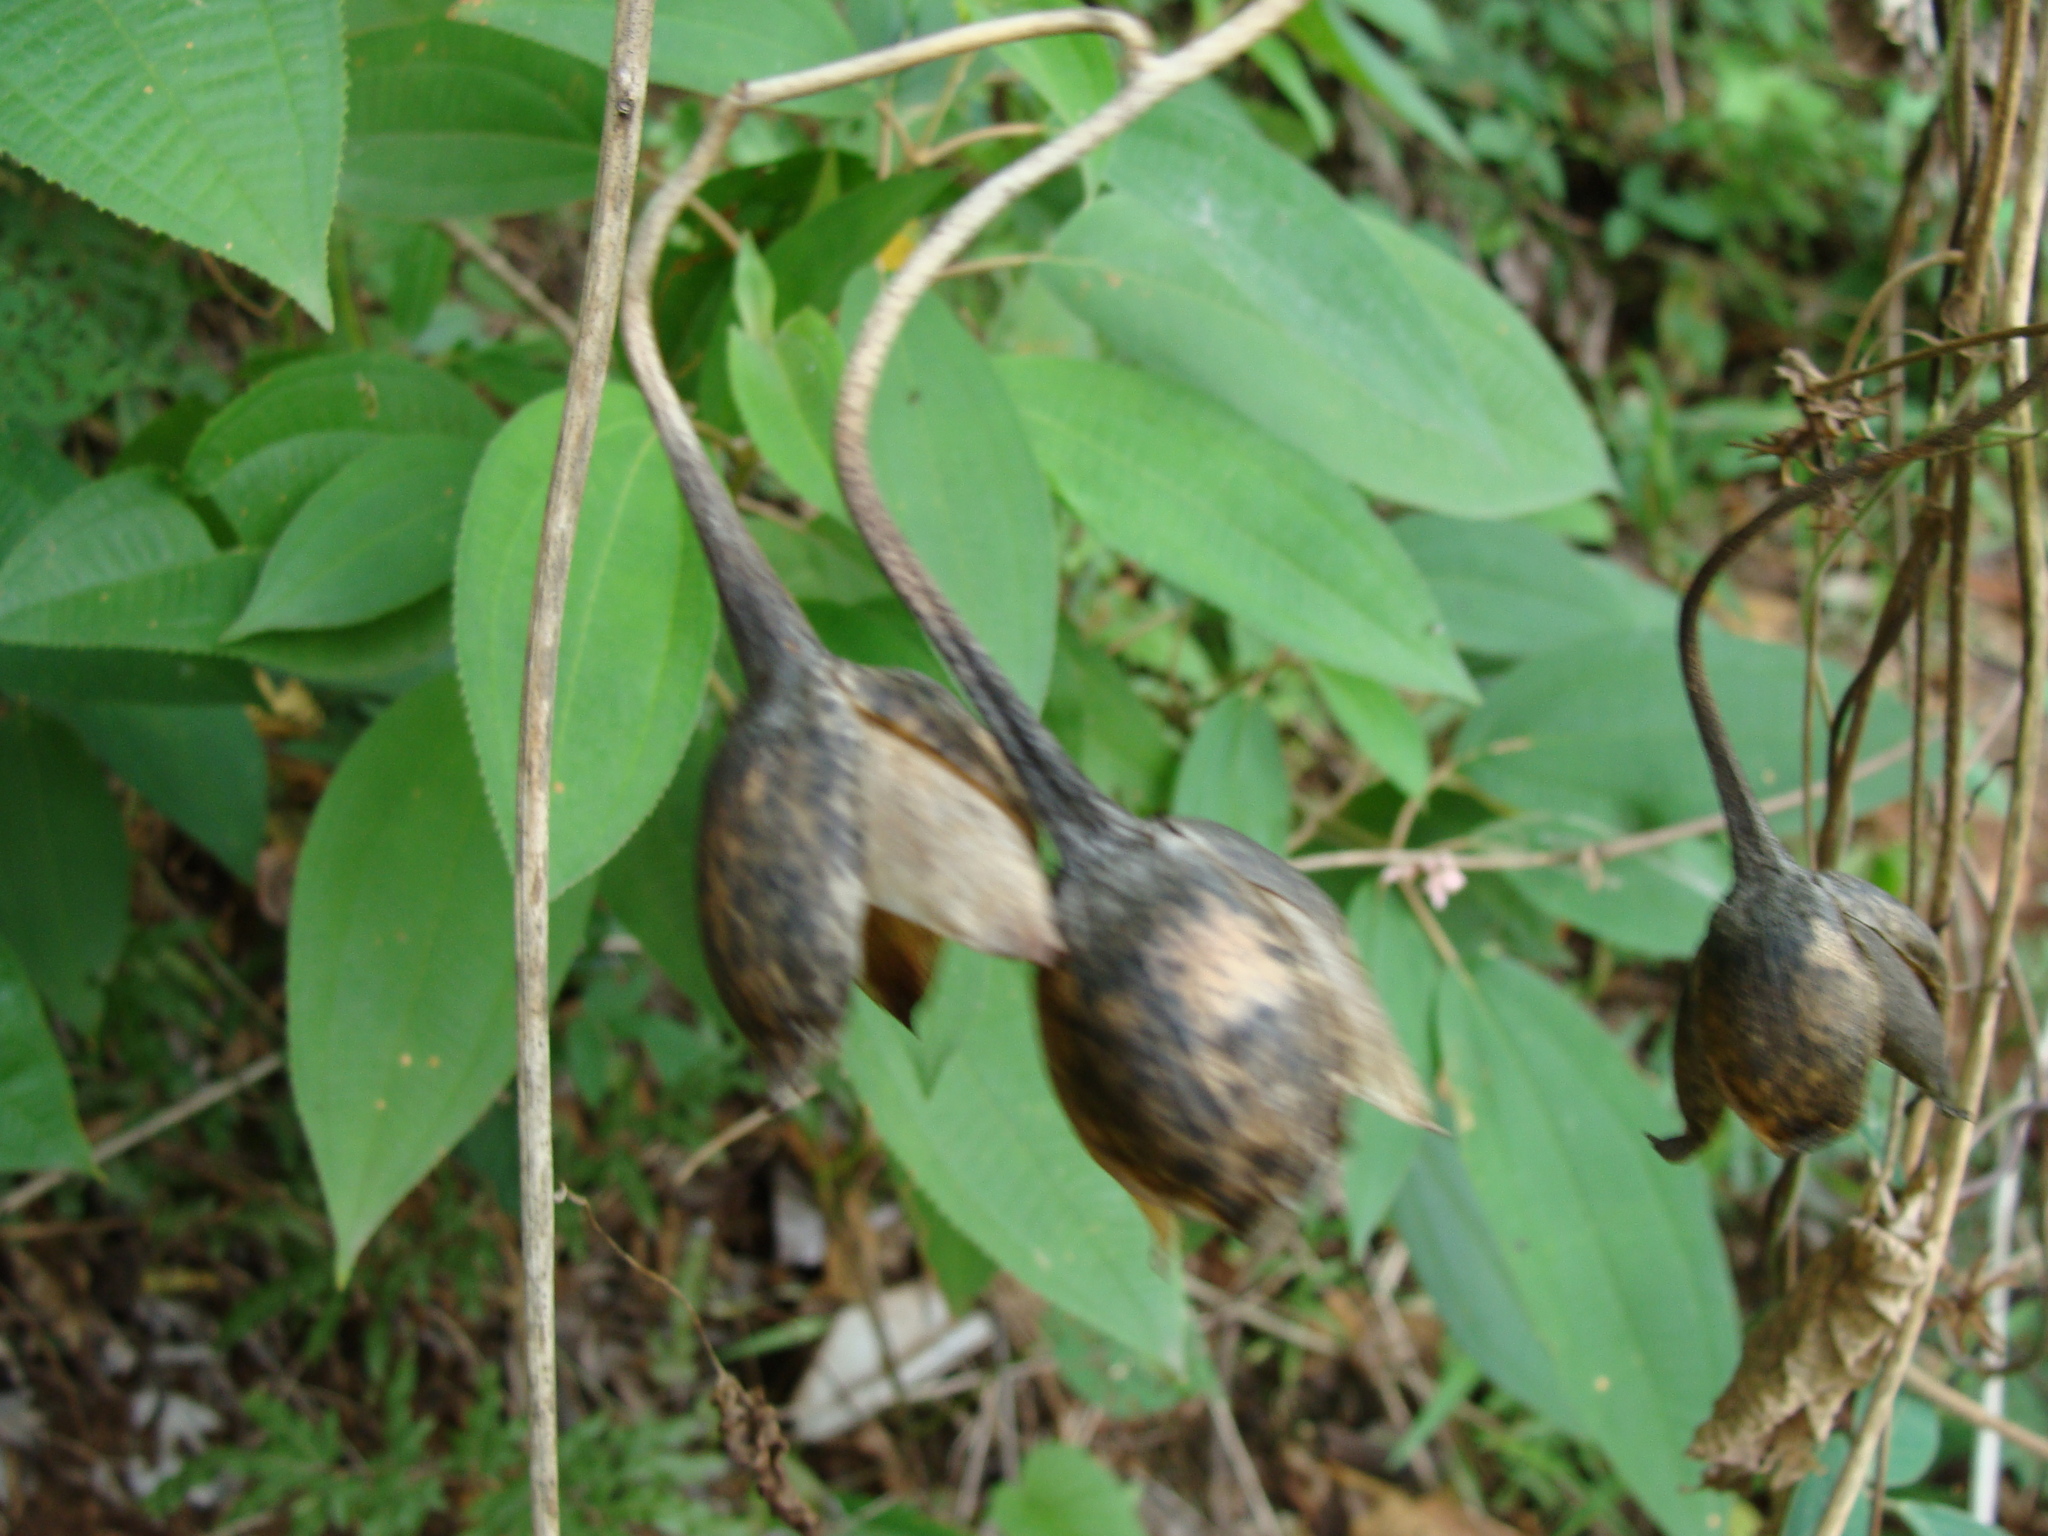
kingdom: Plantae
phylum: Tracheophyta
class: Magnoliopsida
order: Solanales
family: Convolvulaceae
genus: Operculina
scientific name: Operculina pteripes
